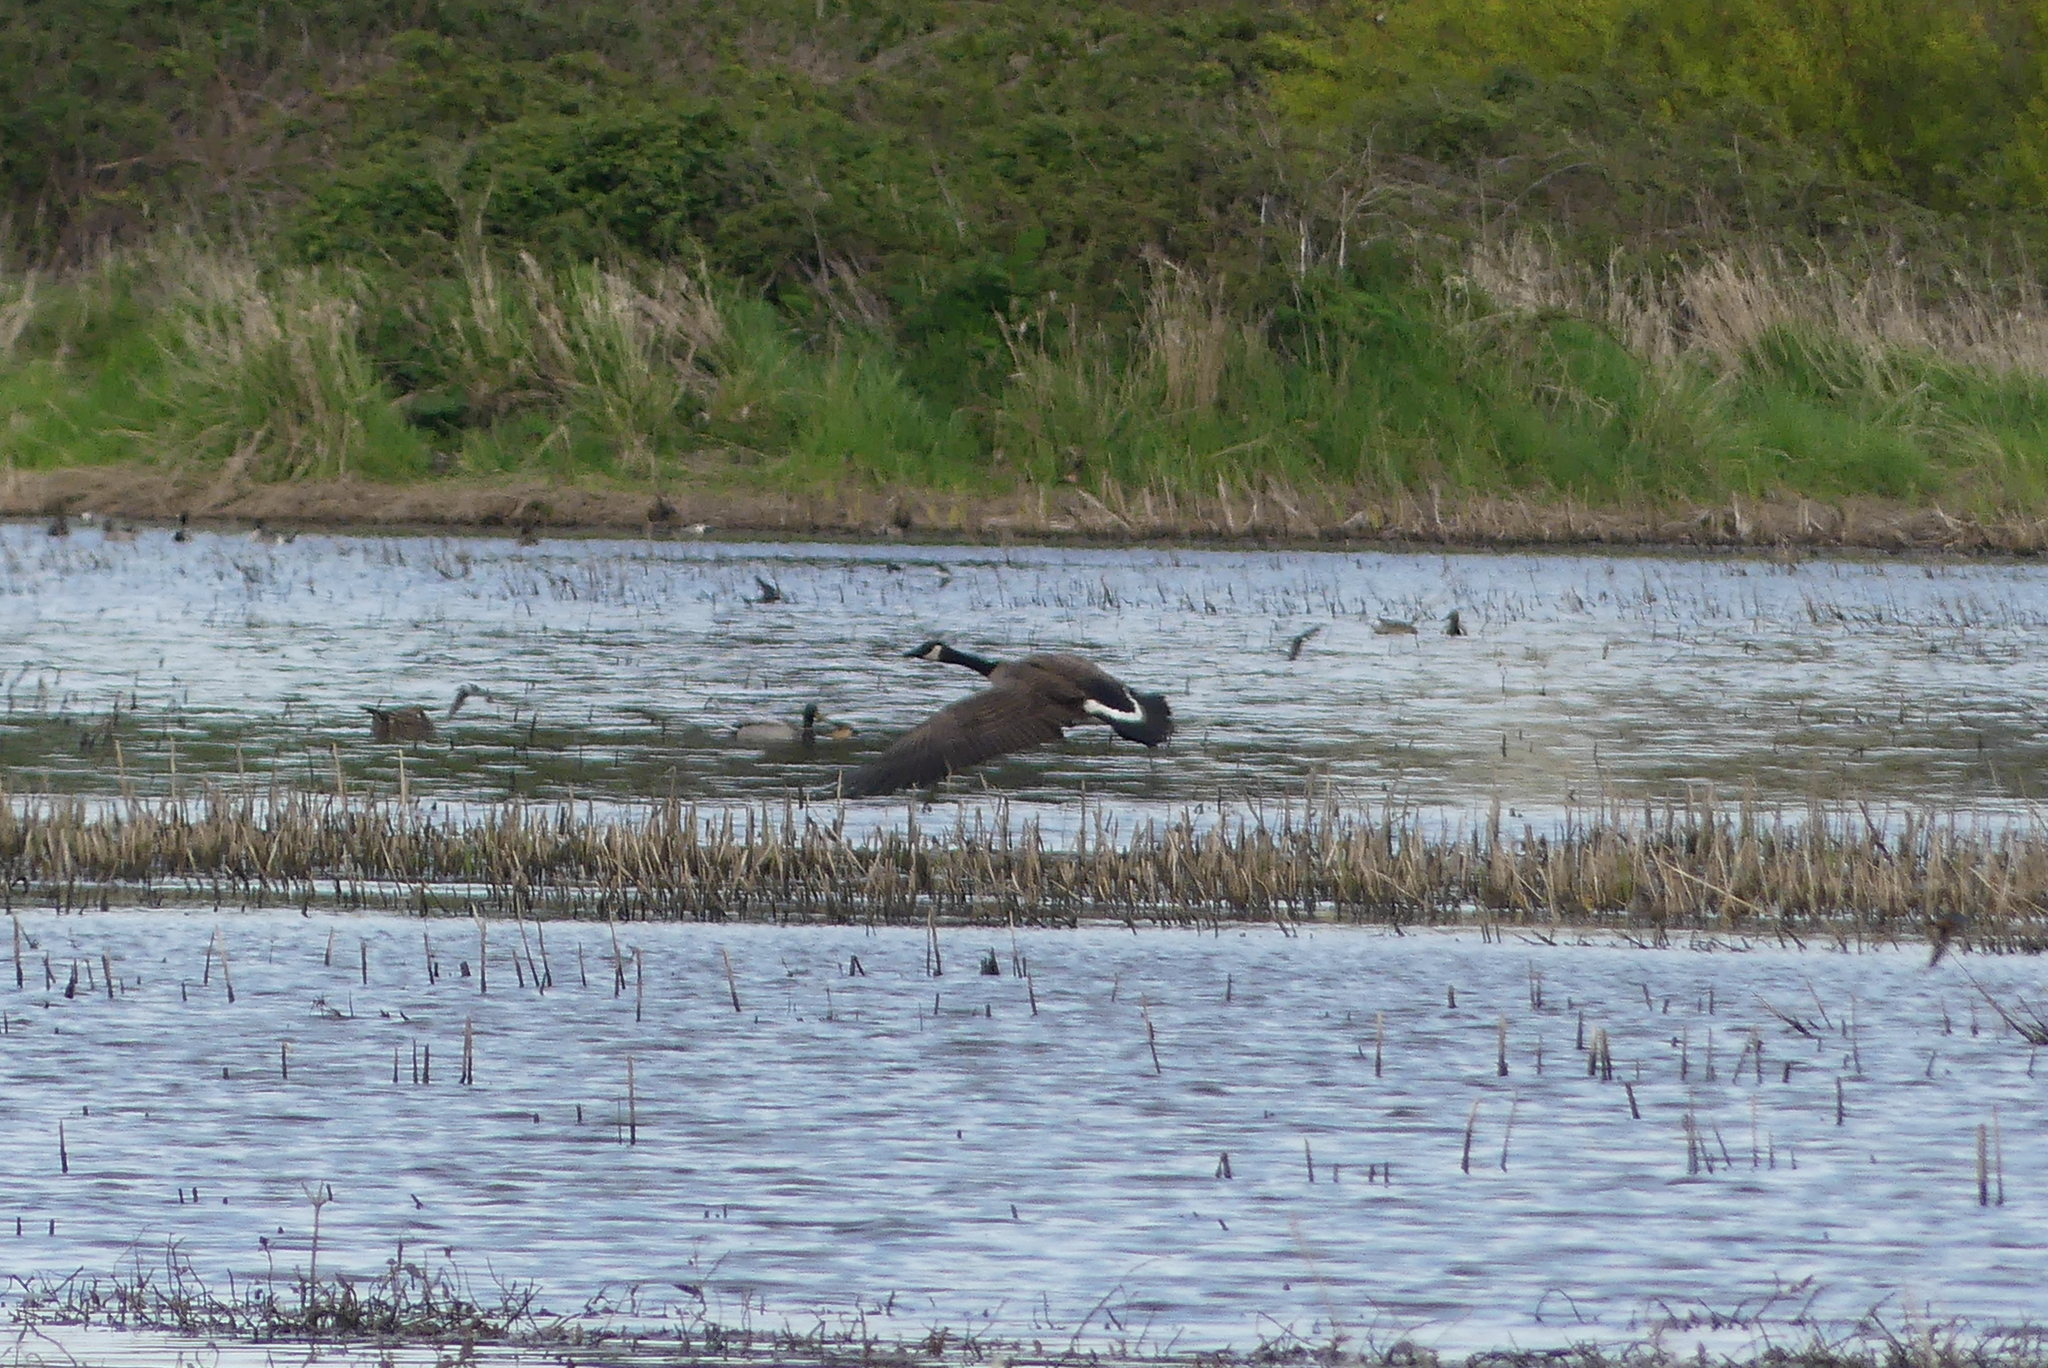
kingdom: Animalia
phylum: Chordata
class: Aves
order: Anseriformes
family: Anatidae
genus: Branta
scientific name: Branta canadensis
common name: Canada goose
